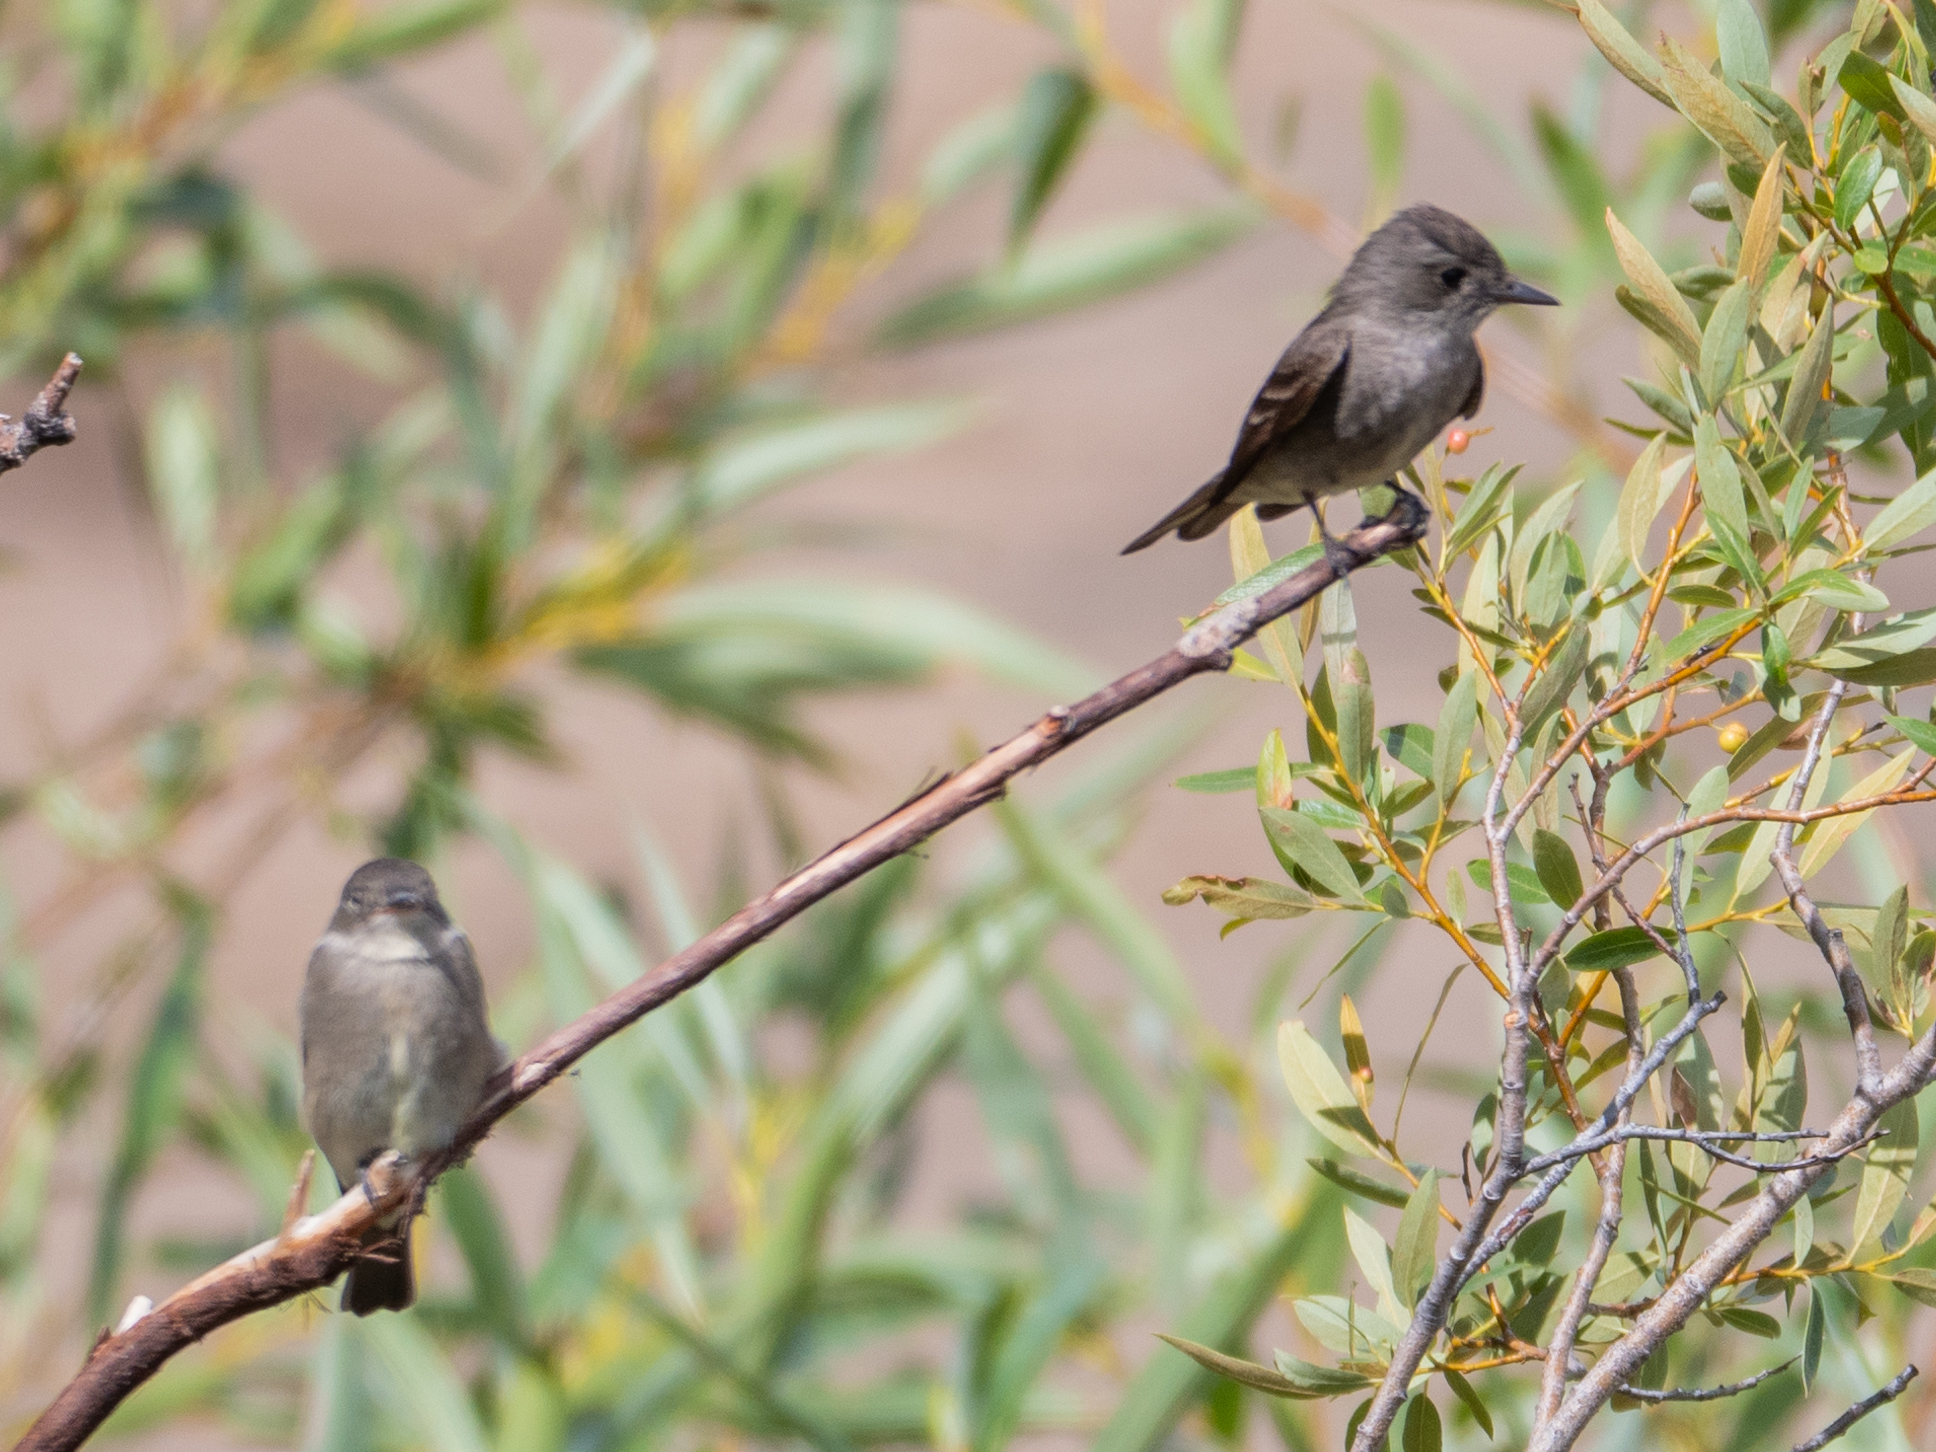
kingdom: Animalia
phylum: Chordata
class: Aves
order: Passeriformes
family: Tyrannidae
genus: Contopus
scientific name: Contopus sordidulus
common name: Western wood-pewee
